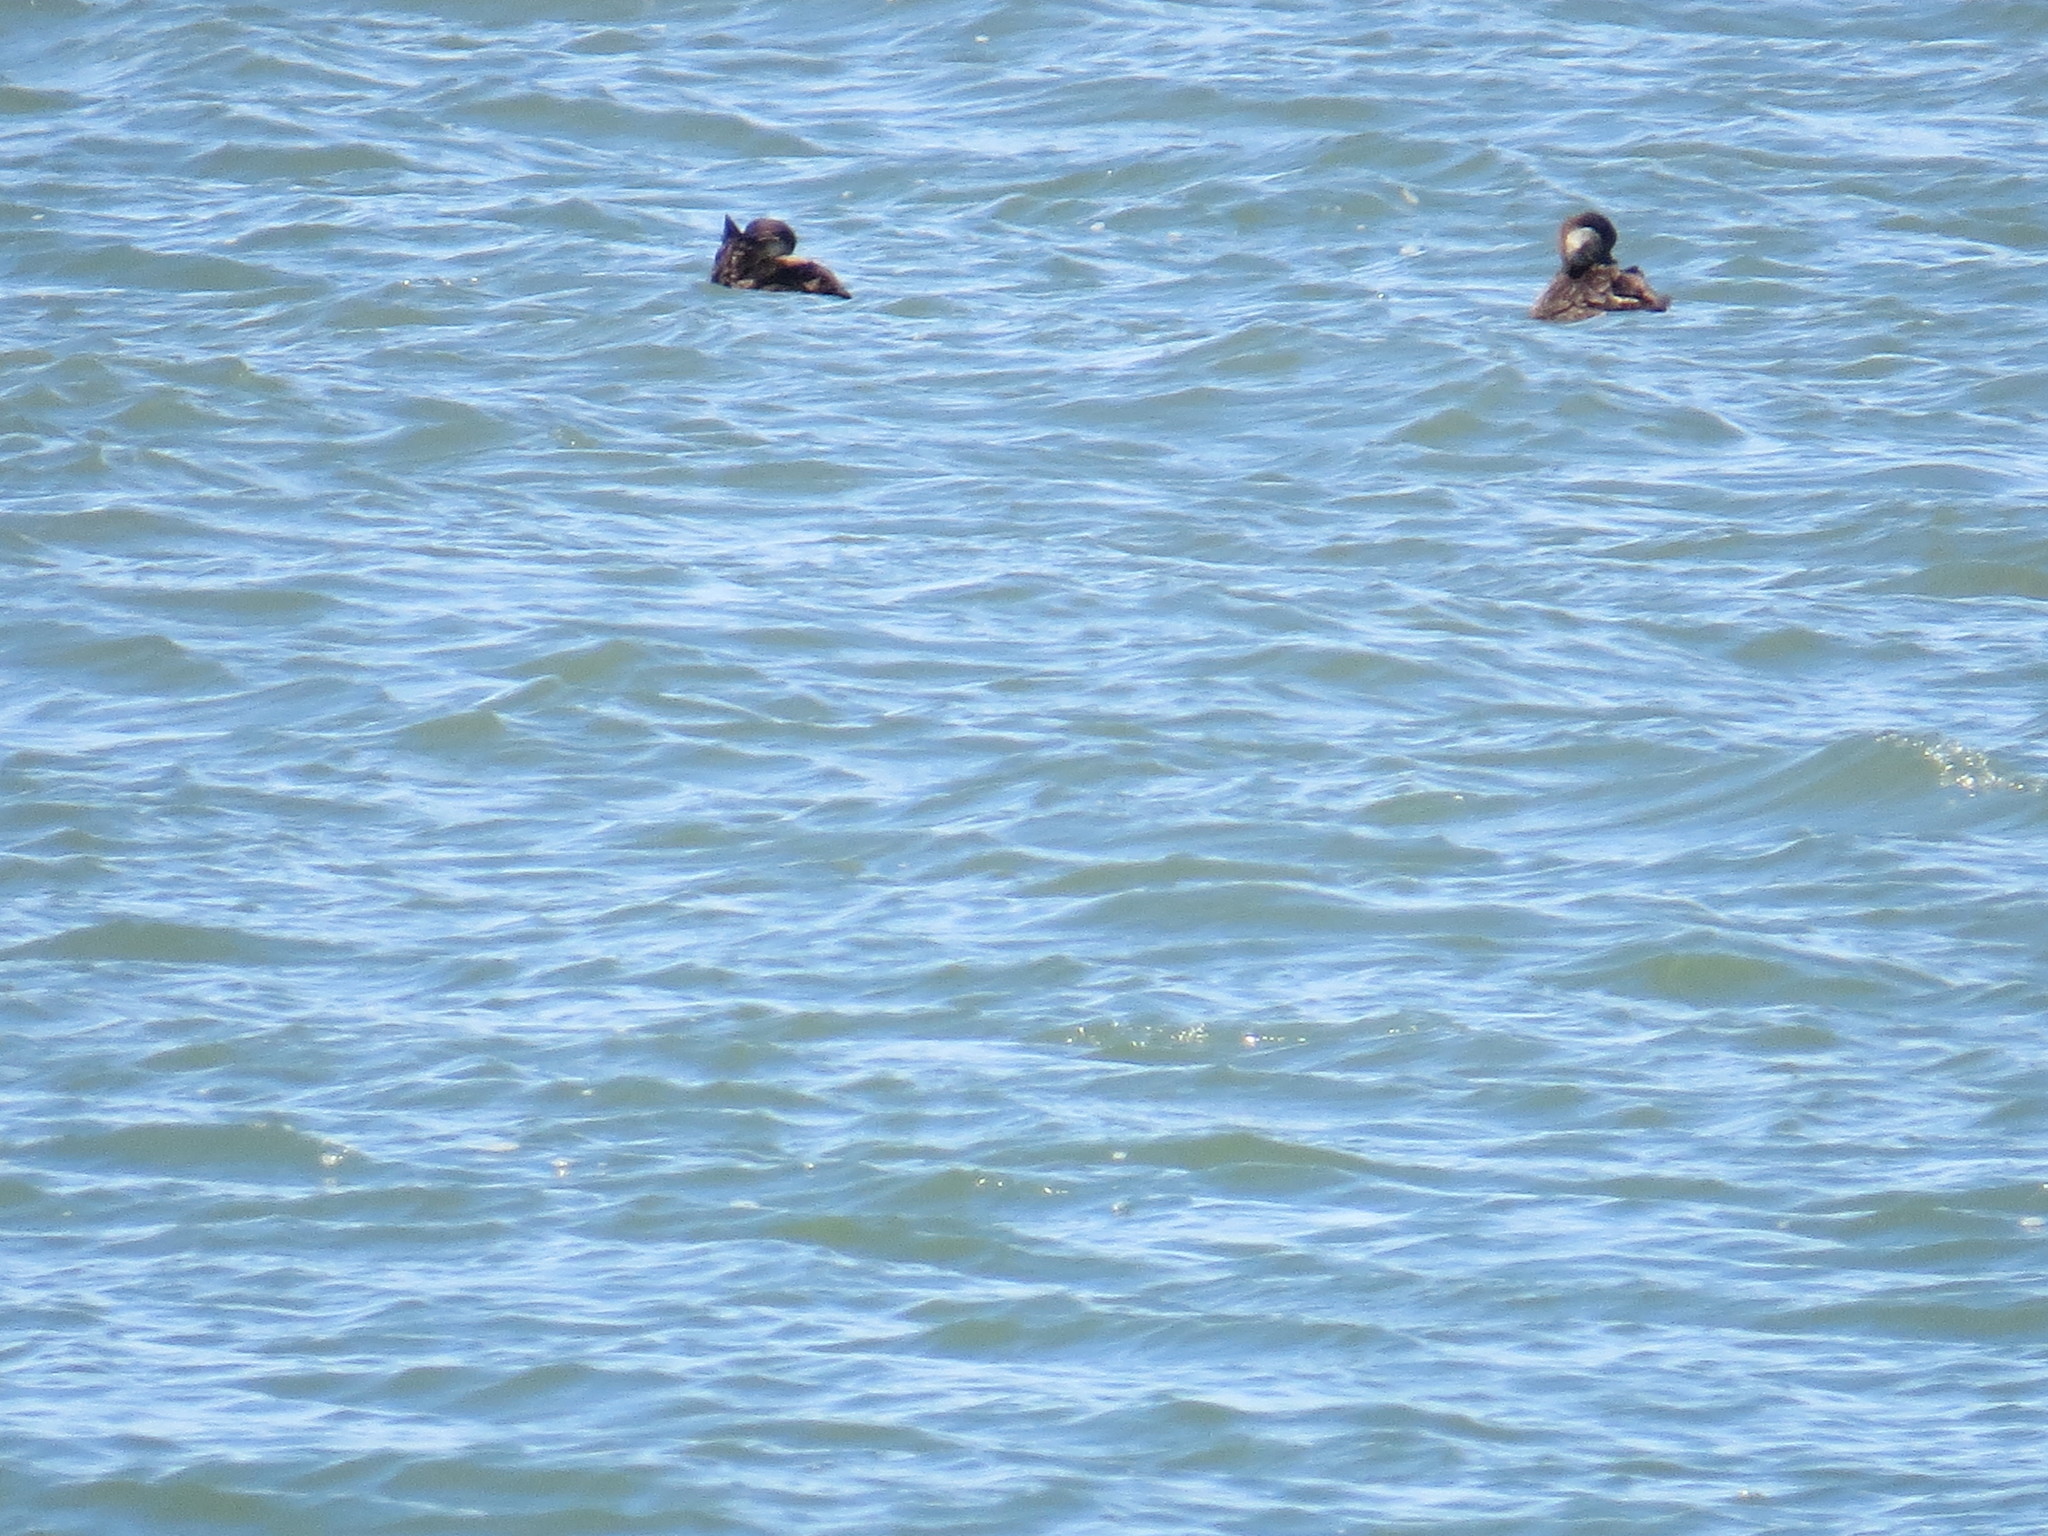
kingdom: Animalia
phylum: Chordata
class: Aves
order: Anseriformes
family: Anatidae
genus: Melanitta
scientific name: Melanitta americana
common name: Black scoter
